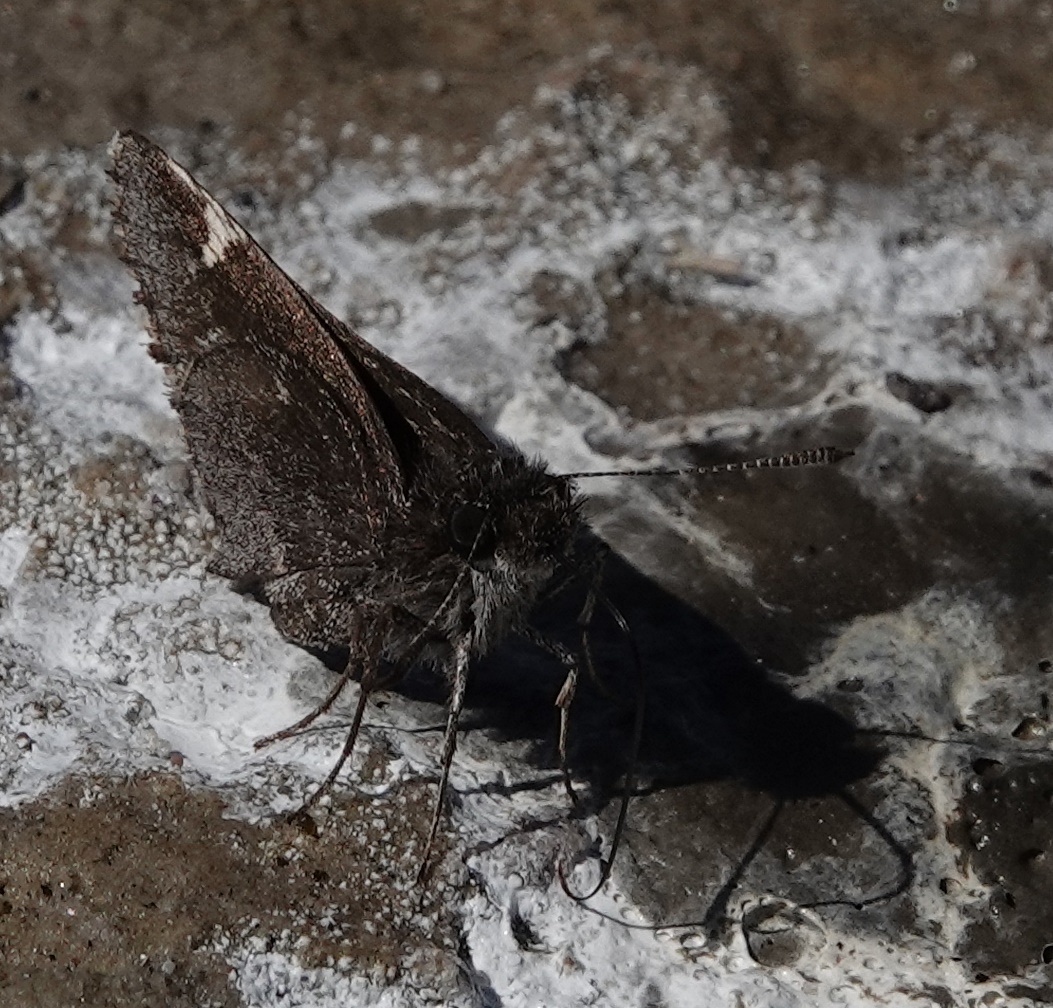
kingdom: Animalia
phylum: Arthropoda
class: Insecta
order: Lepidoptera
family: Hesperiidae
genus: Mastor
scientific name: Mastor vialis
